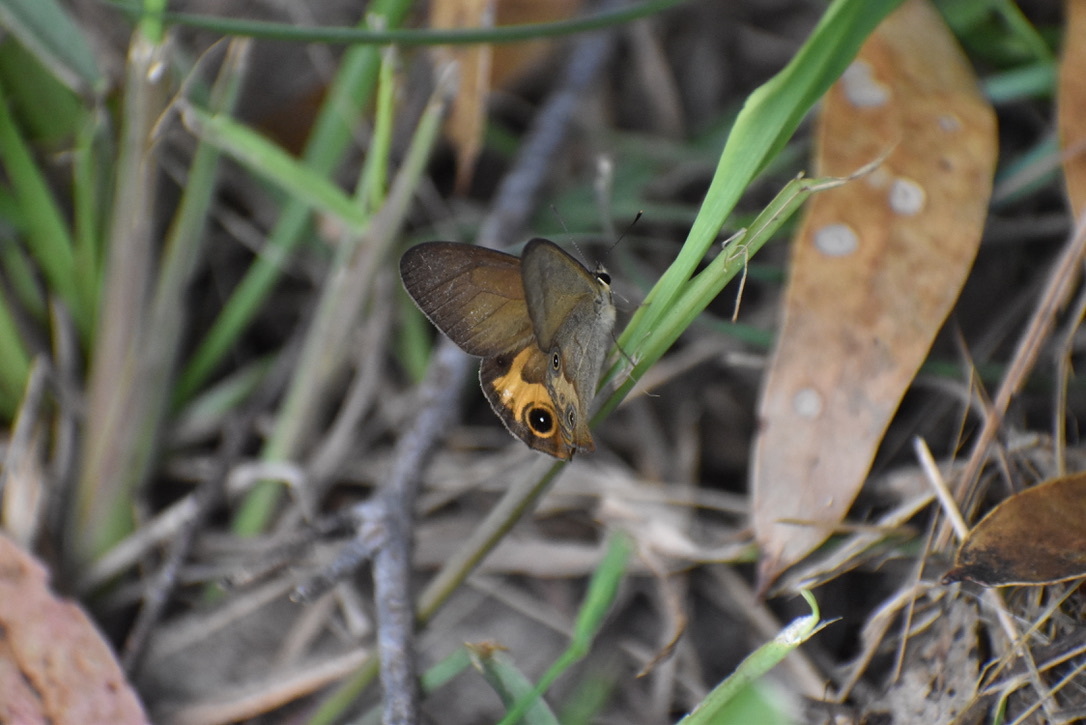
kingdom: Animalia
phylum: Arthropoda
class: Insecta
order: Lepidoptera
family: Nymphalidae
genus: Hypocysta
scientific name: Hypocysta metirius
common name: Brown ringlet
